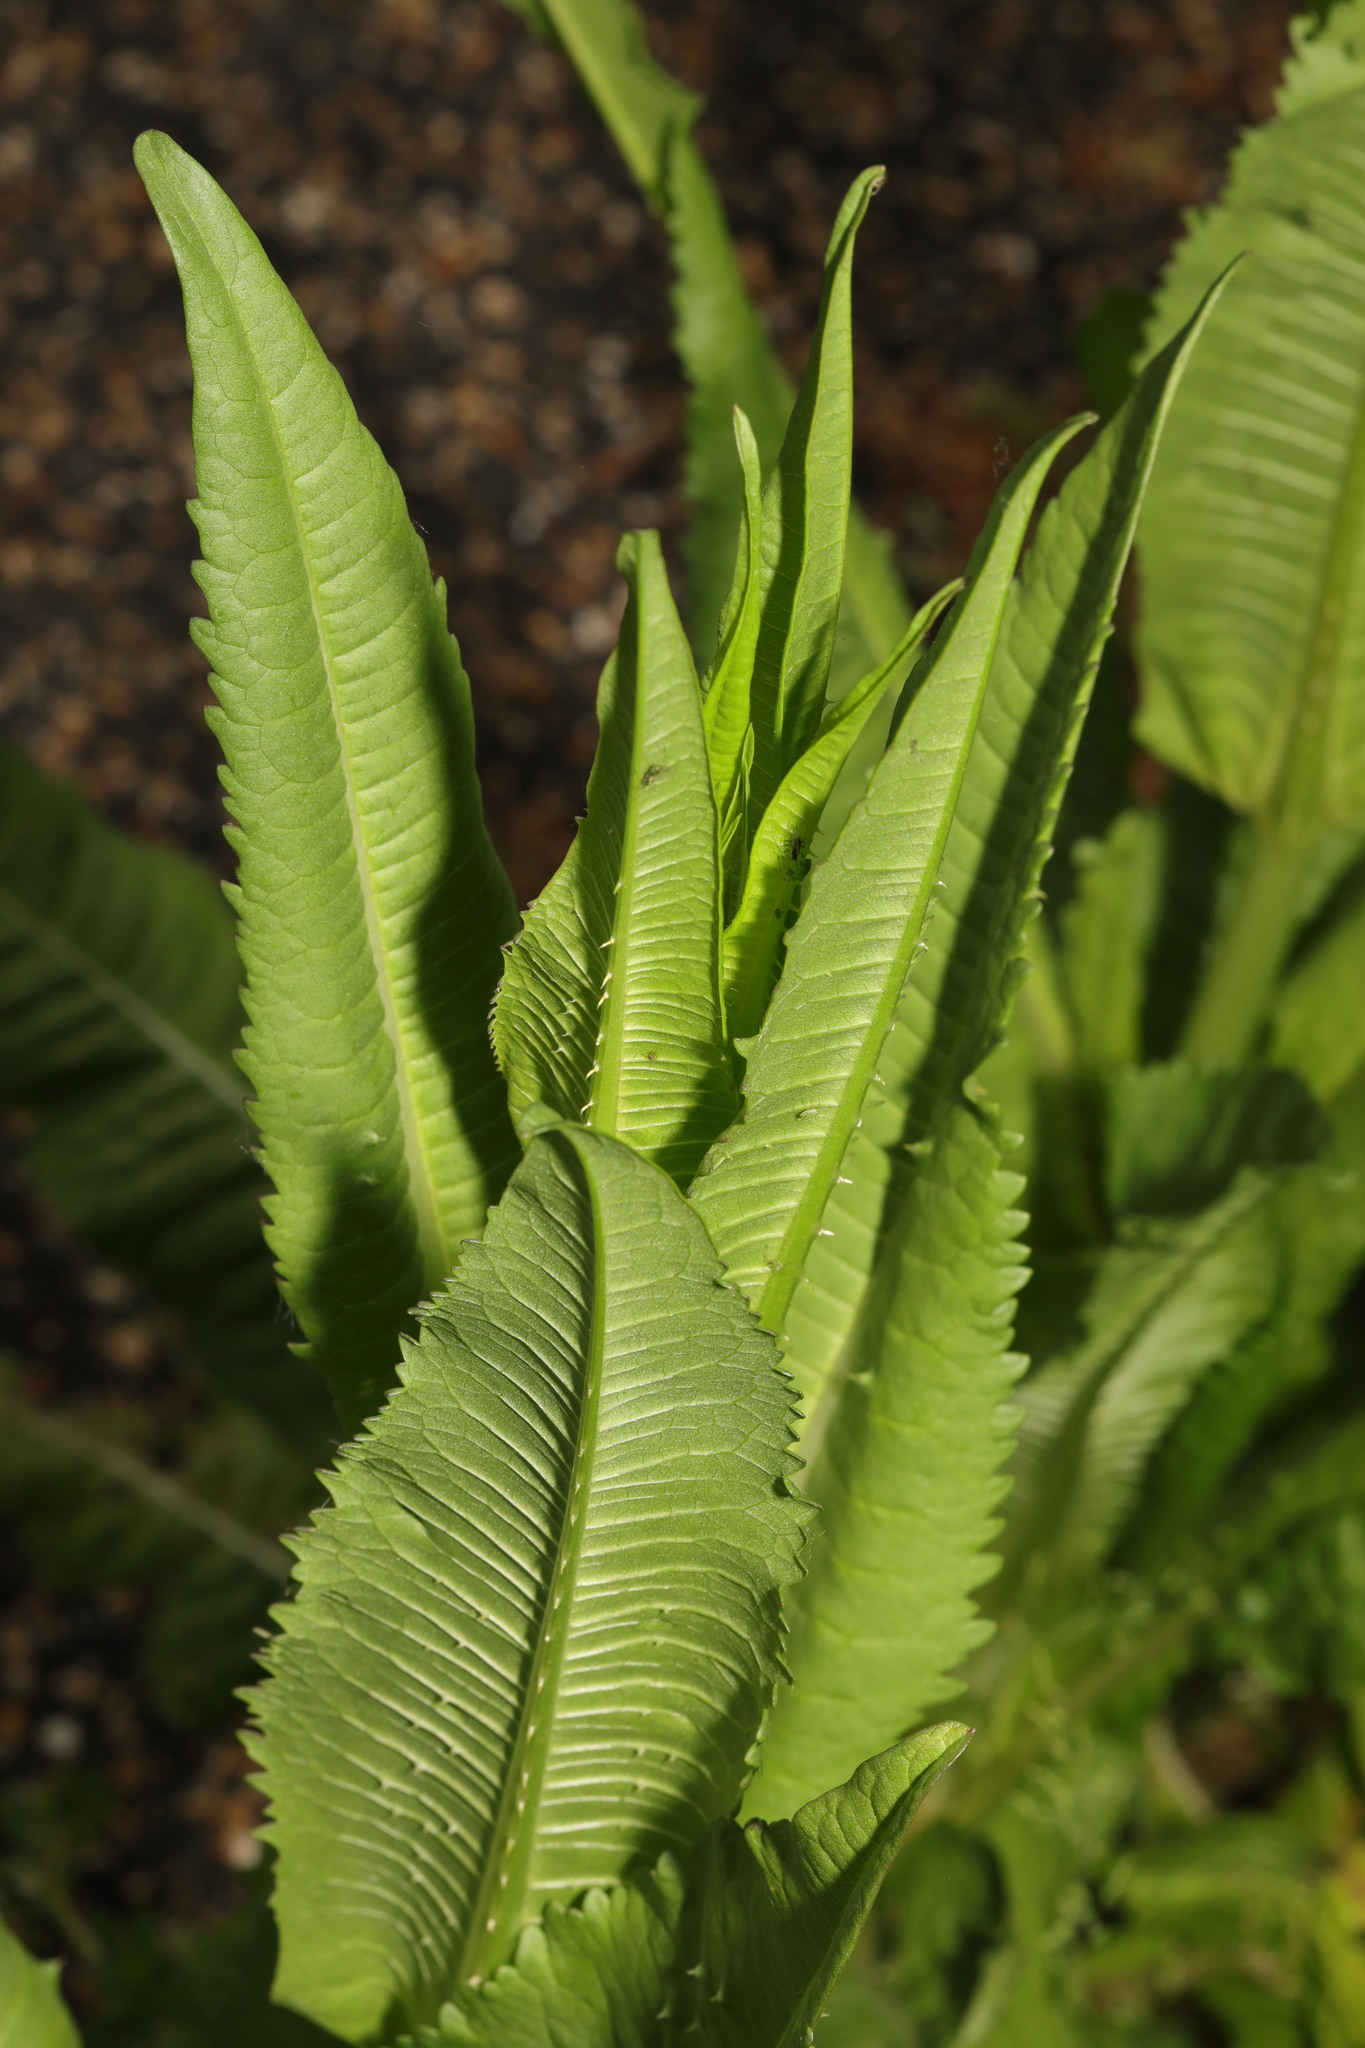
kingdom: Plantae
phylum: Tracheophyta
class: Magnoliopsida
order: Dipsacales
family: Caprifoliaceae
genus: Dipsacus
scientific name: Dipsacus fullonum
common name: Teasel
